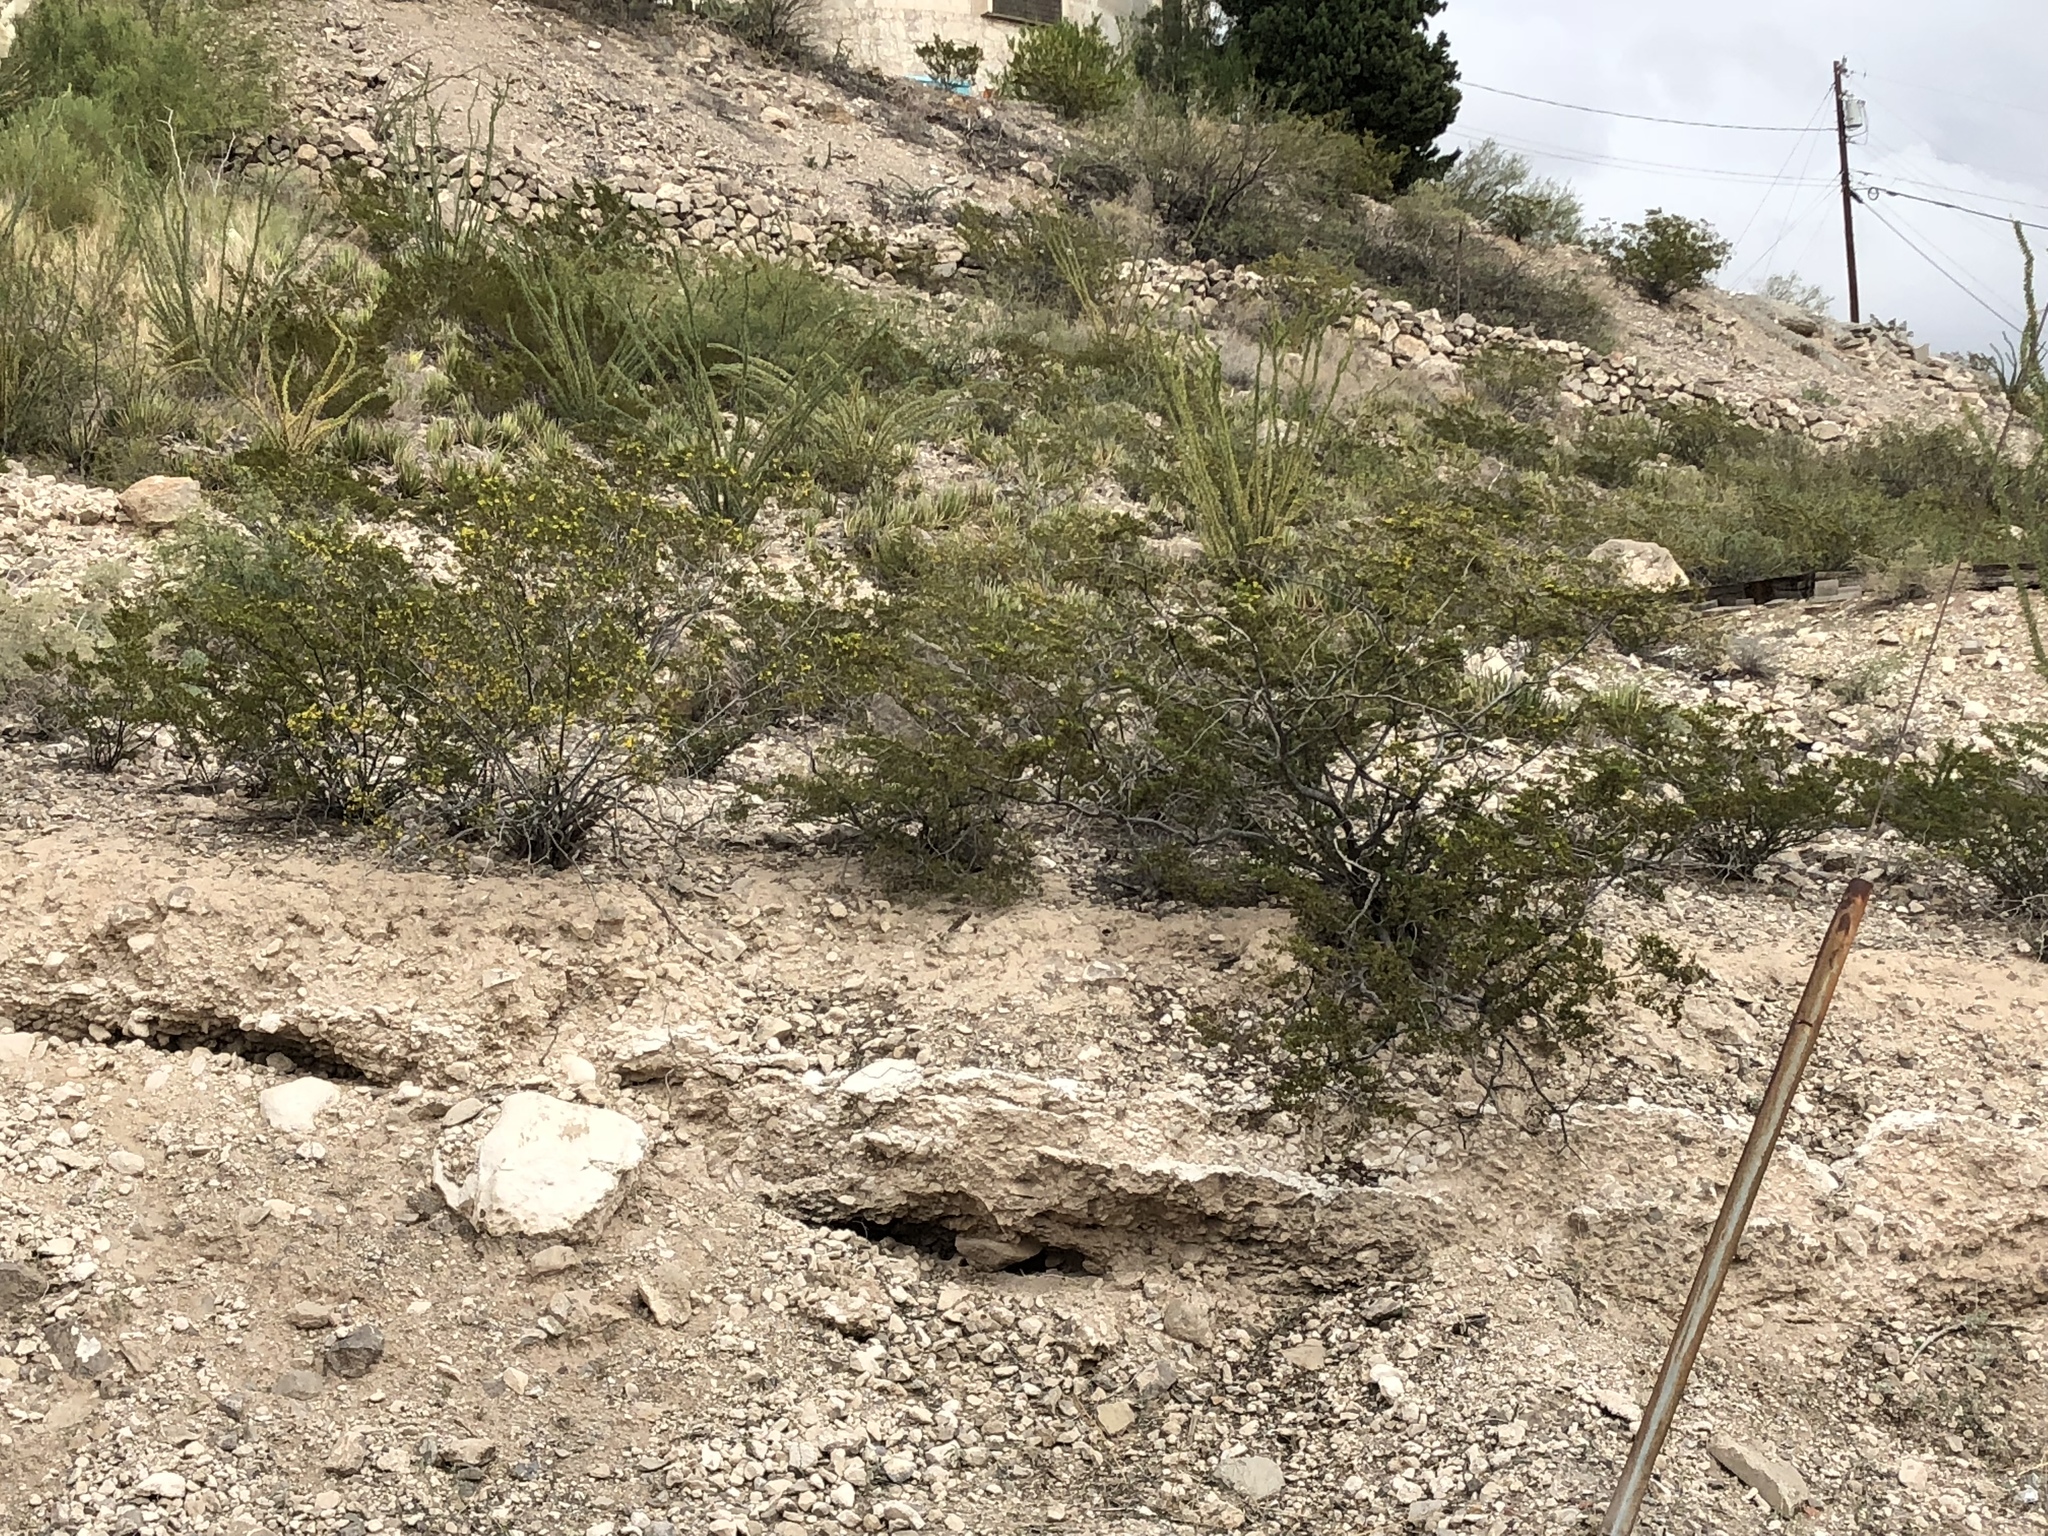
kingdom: Plantae
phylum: Tracheophyta
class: Magnoliopsida
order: Zygophyllales
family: Zygophyllaceae
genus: Larrea
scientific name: Larrea tridentata
